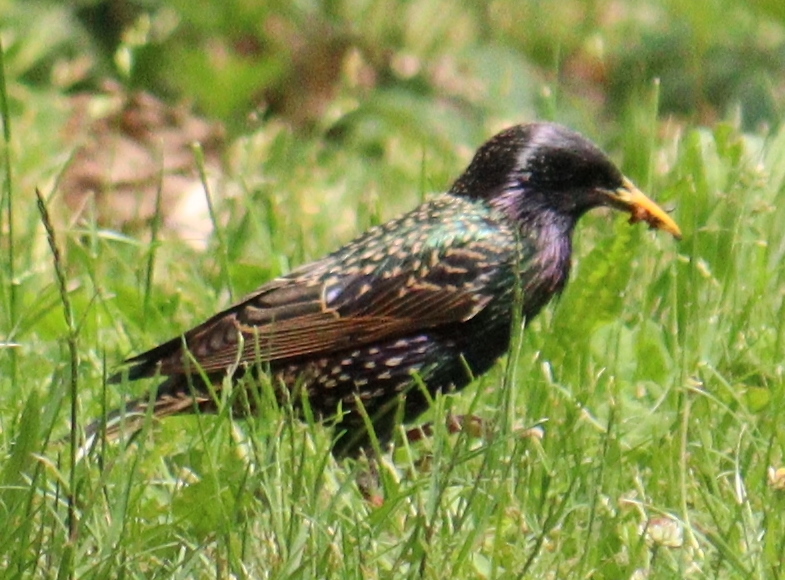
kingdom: Animalia
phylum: Chordata
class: Aves
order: Passeriformes
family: Sturnidae
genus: Sturnus
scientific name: Sturnus vulgaris
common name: Common starling
